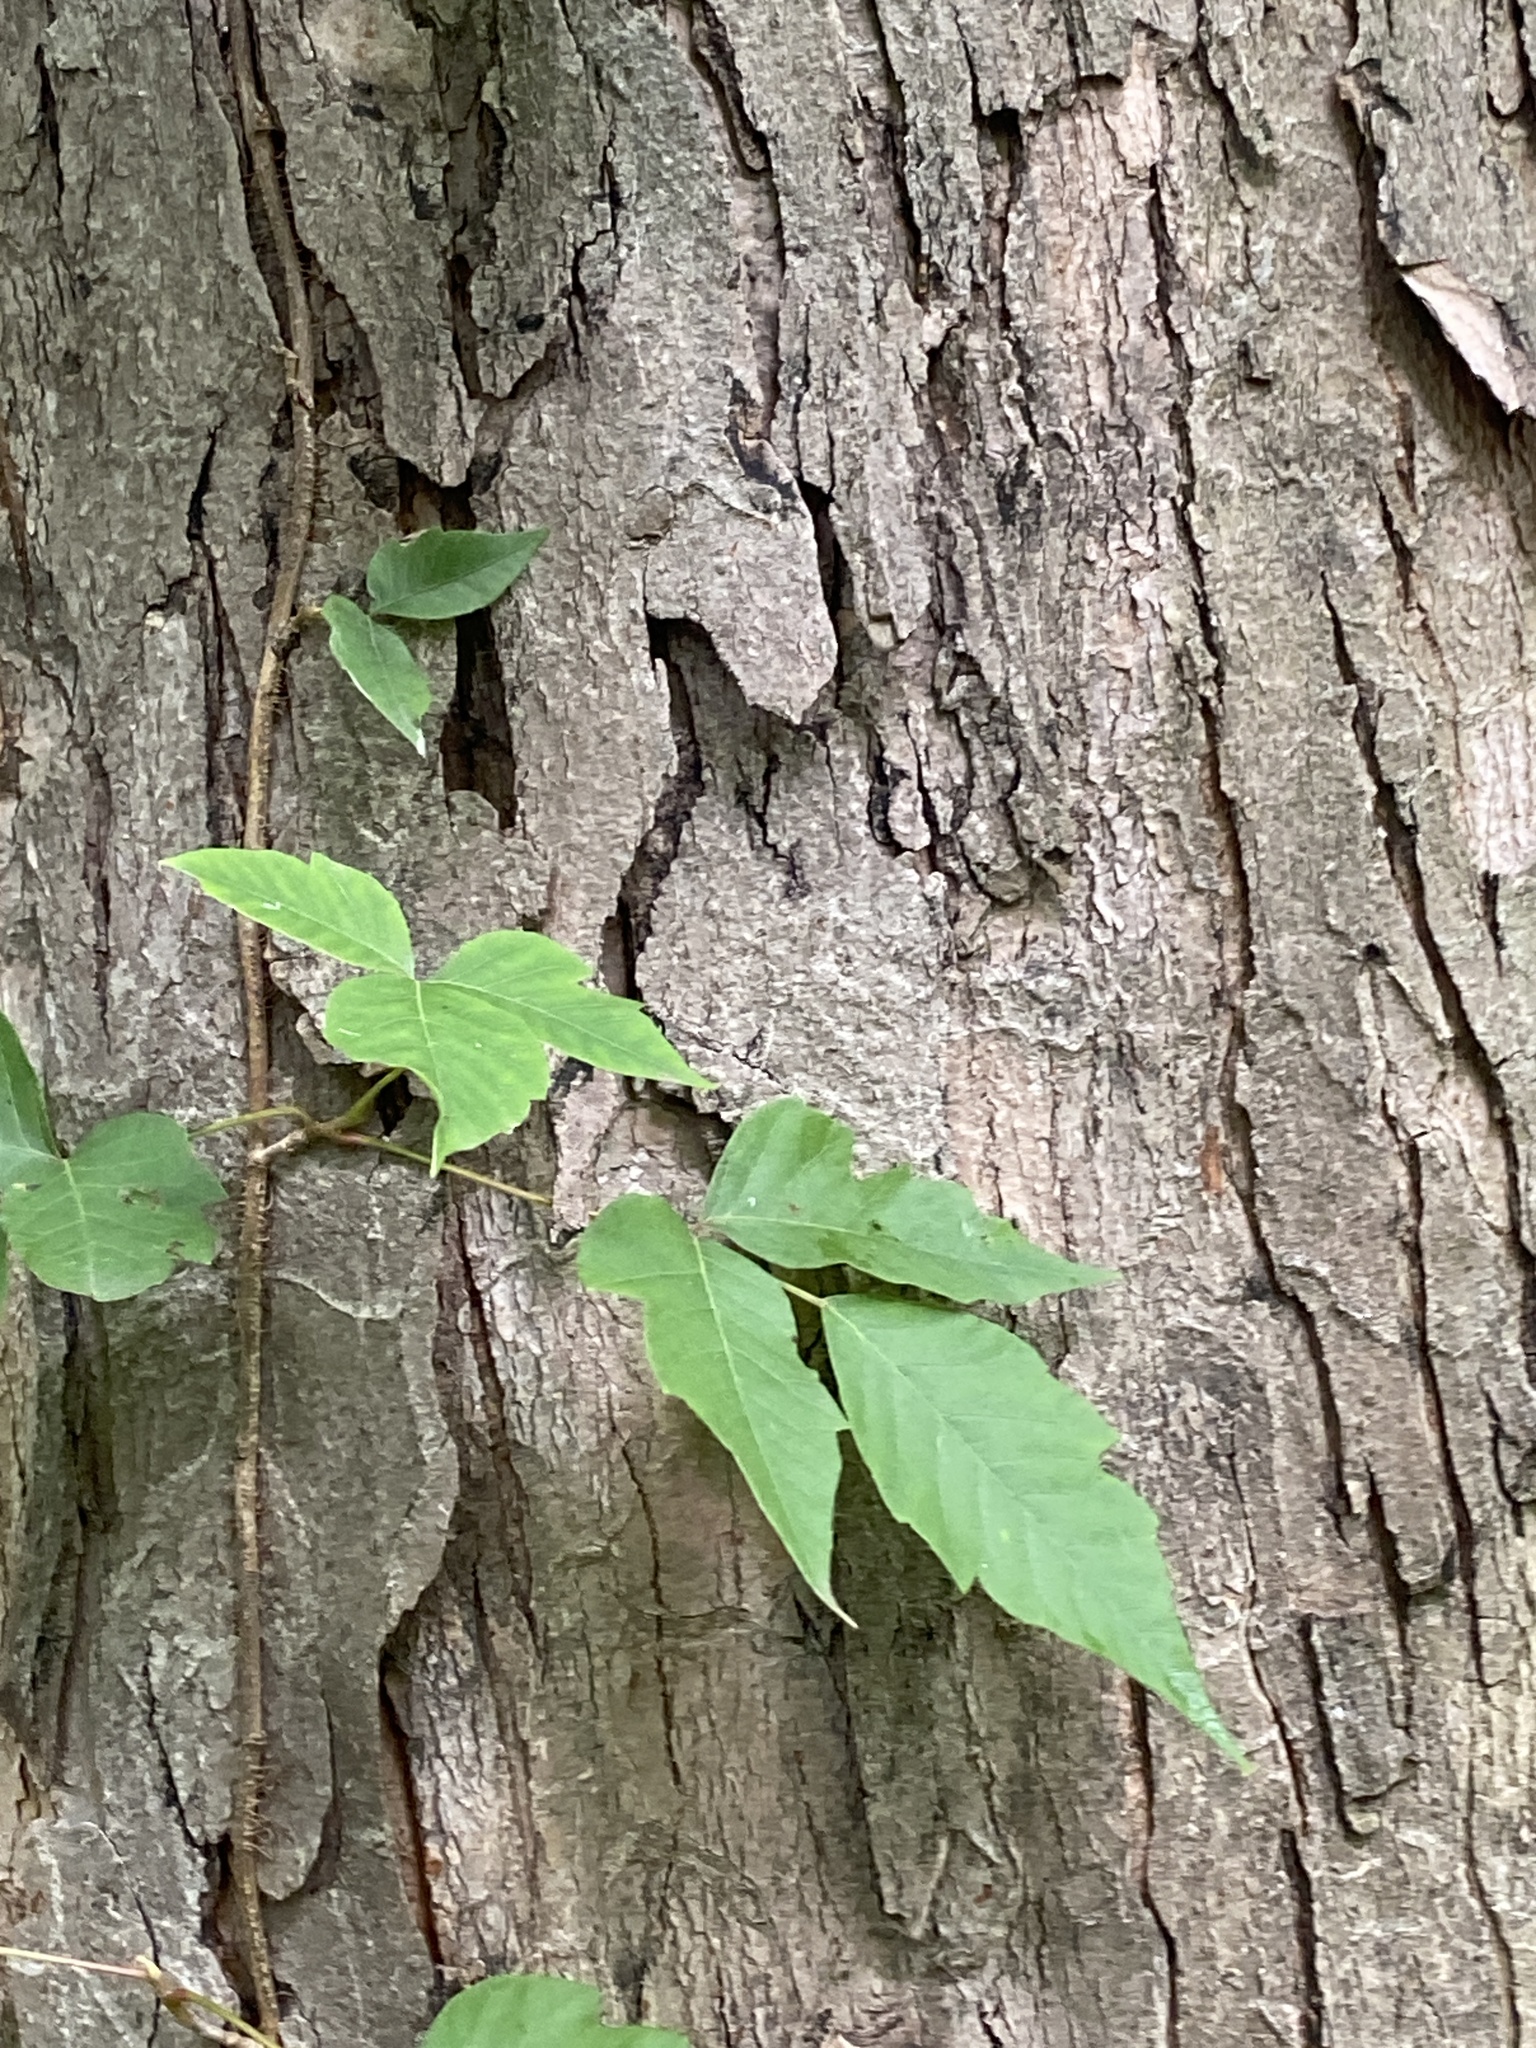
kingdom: Plantae
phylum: Tracheophyta
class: Magnoliopsida
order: Sapindales
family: Anacardiaceae
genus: Toxicodendron
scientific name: Toxicodendron radicans
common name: Poison ivy
